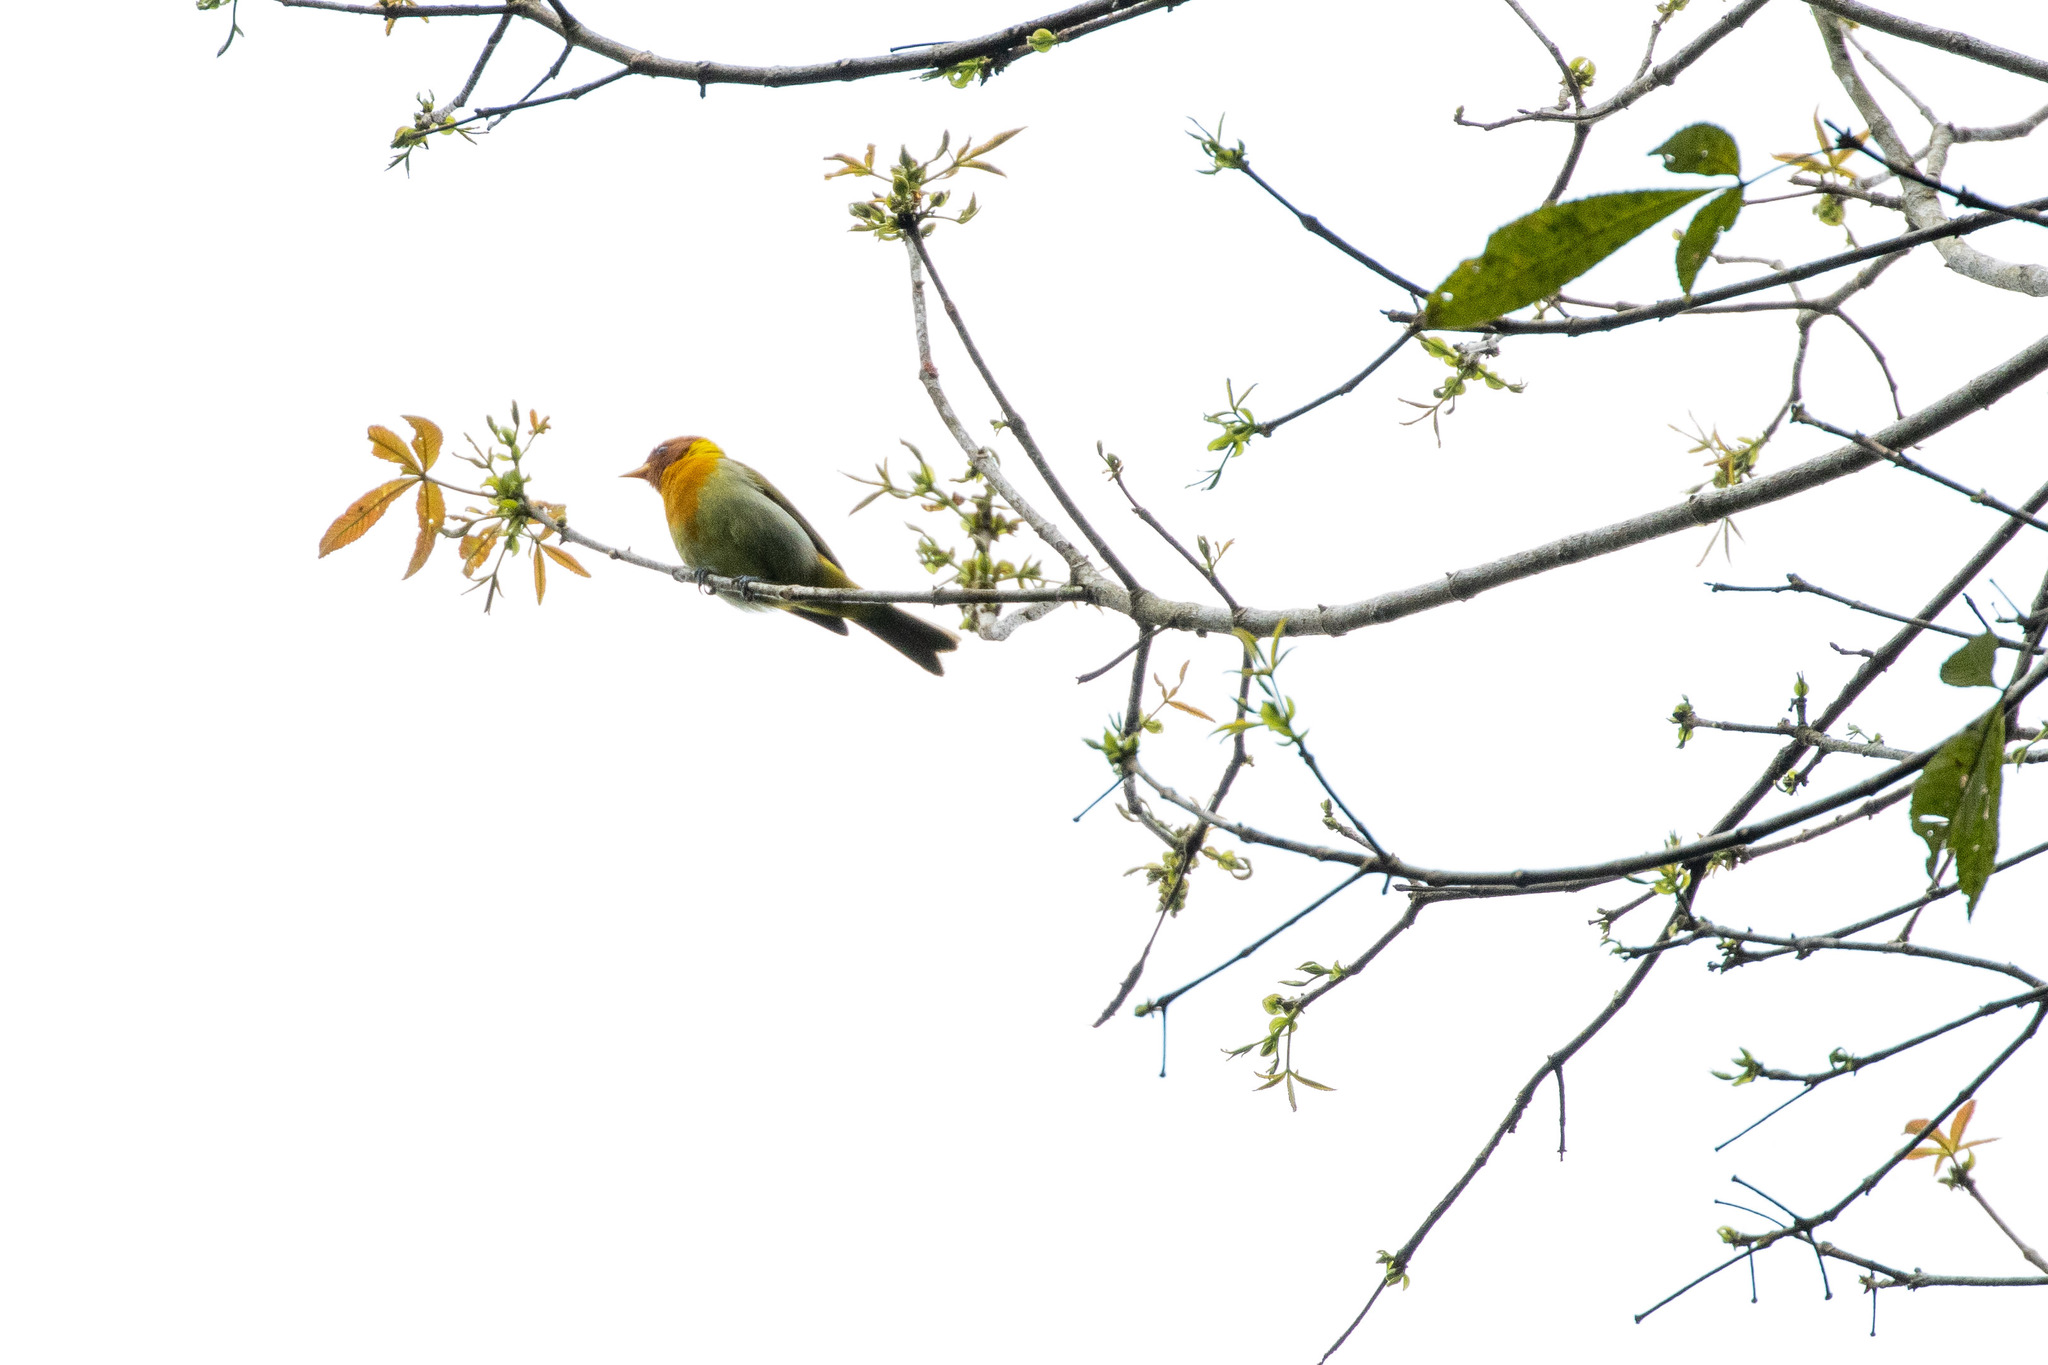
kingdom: Animalia
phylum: Chordata
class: Aves
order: Passeriformes
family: Thraupidae
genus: Hemithraupis
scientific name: Hemithraupis ruficapilla
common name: Rufous-headed tanager
